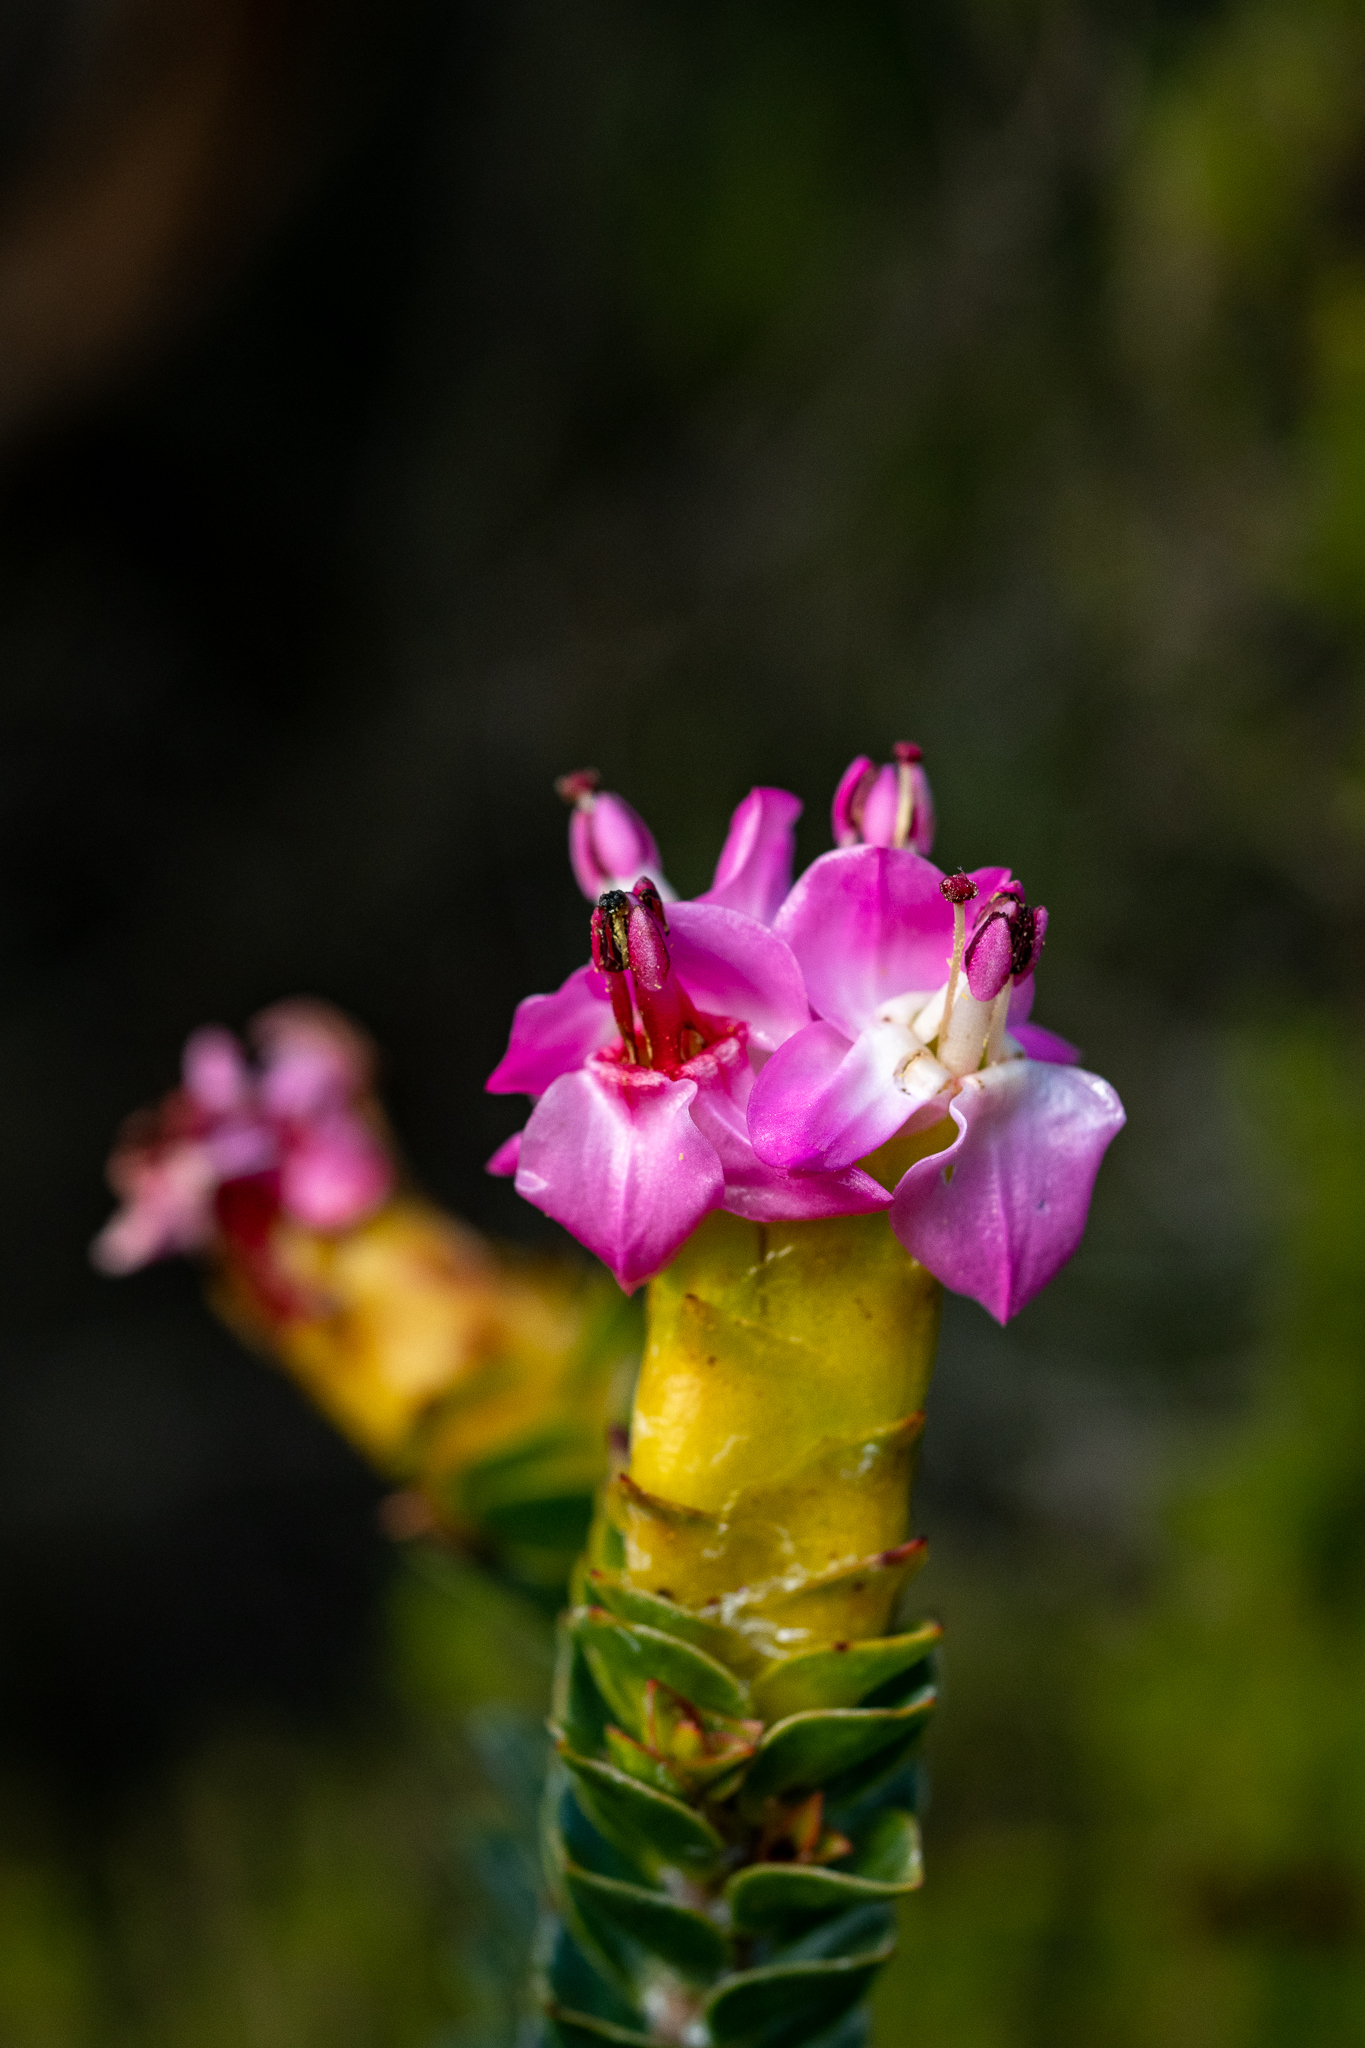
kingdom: Plantae
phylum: Tracheophyta
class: Magnoliopsida
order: Myrtales
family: Penaeaceae
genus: Saltera
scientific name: Saltera sarcocolla
